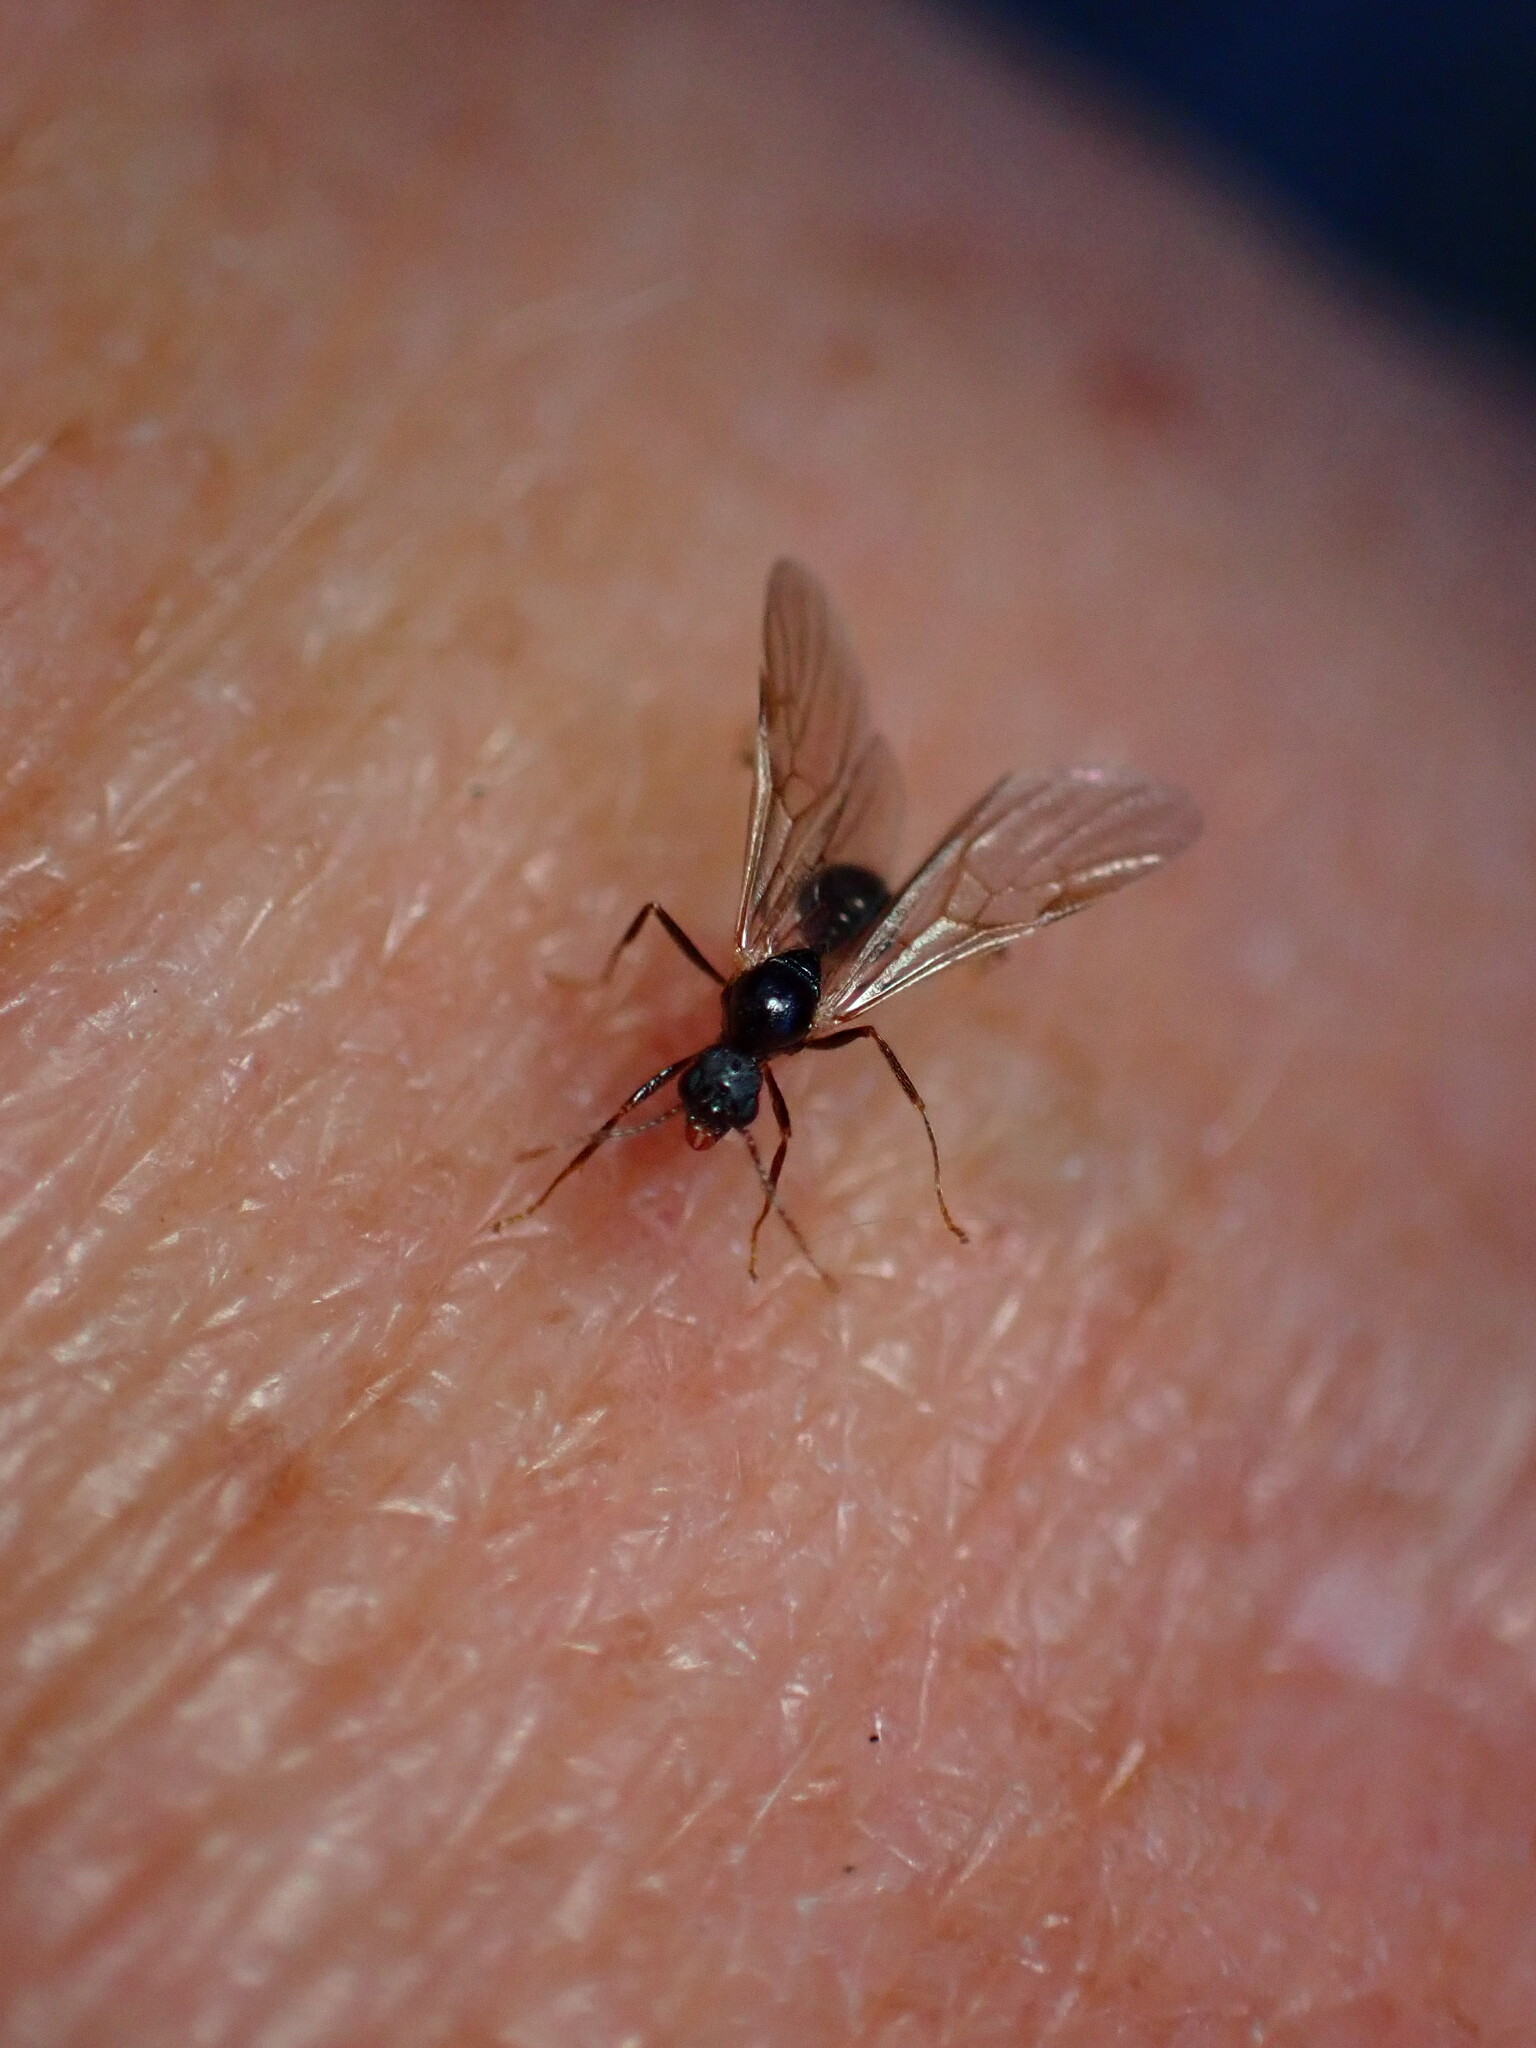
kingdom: Animalia
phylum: Arthropoda
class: Insecta
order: Hymenoptera
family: Formicidae
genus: Aphaenogaster
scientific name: Aphaenogaster occidentalis
